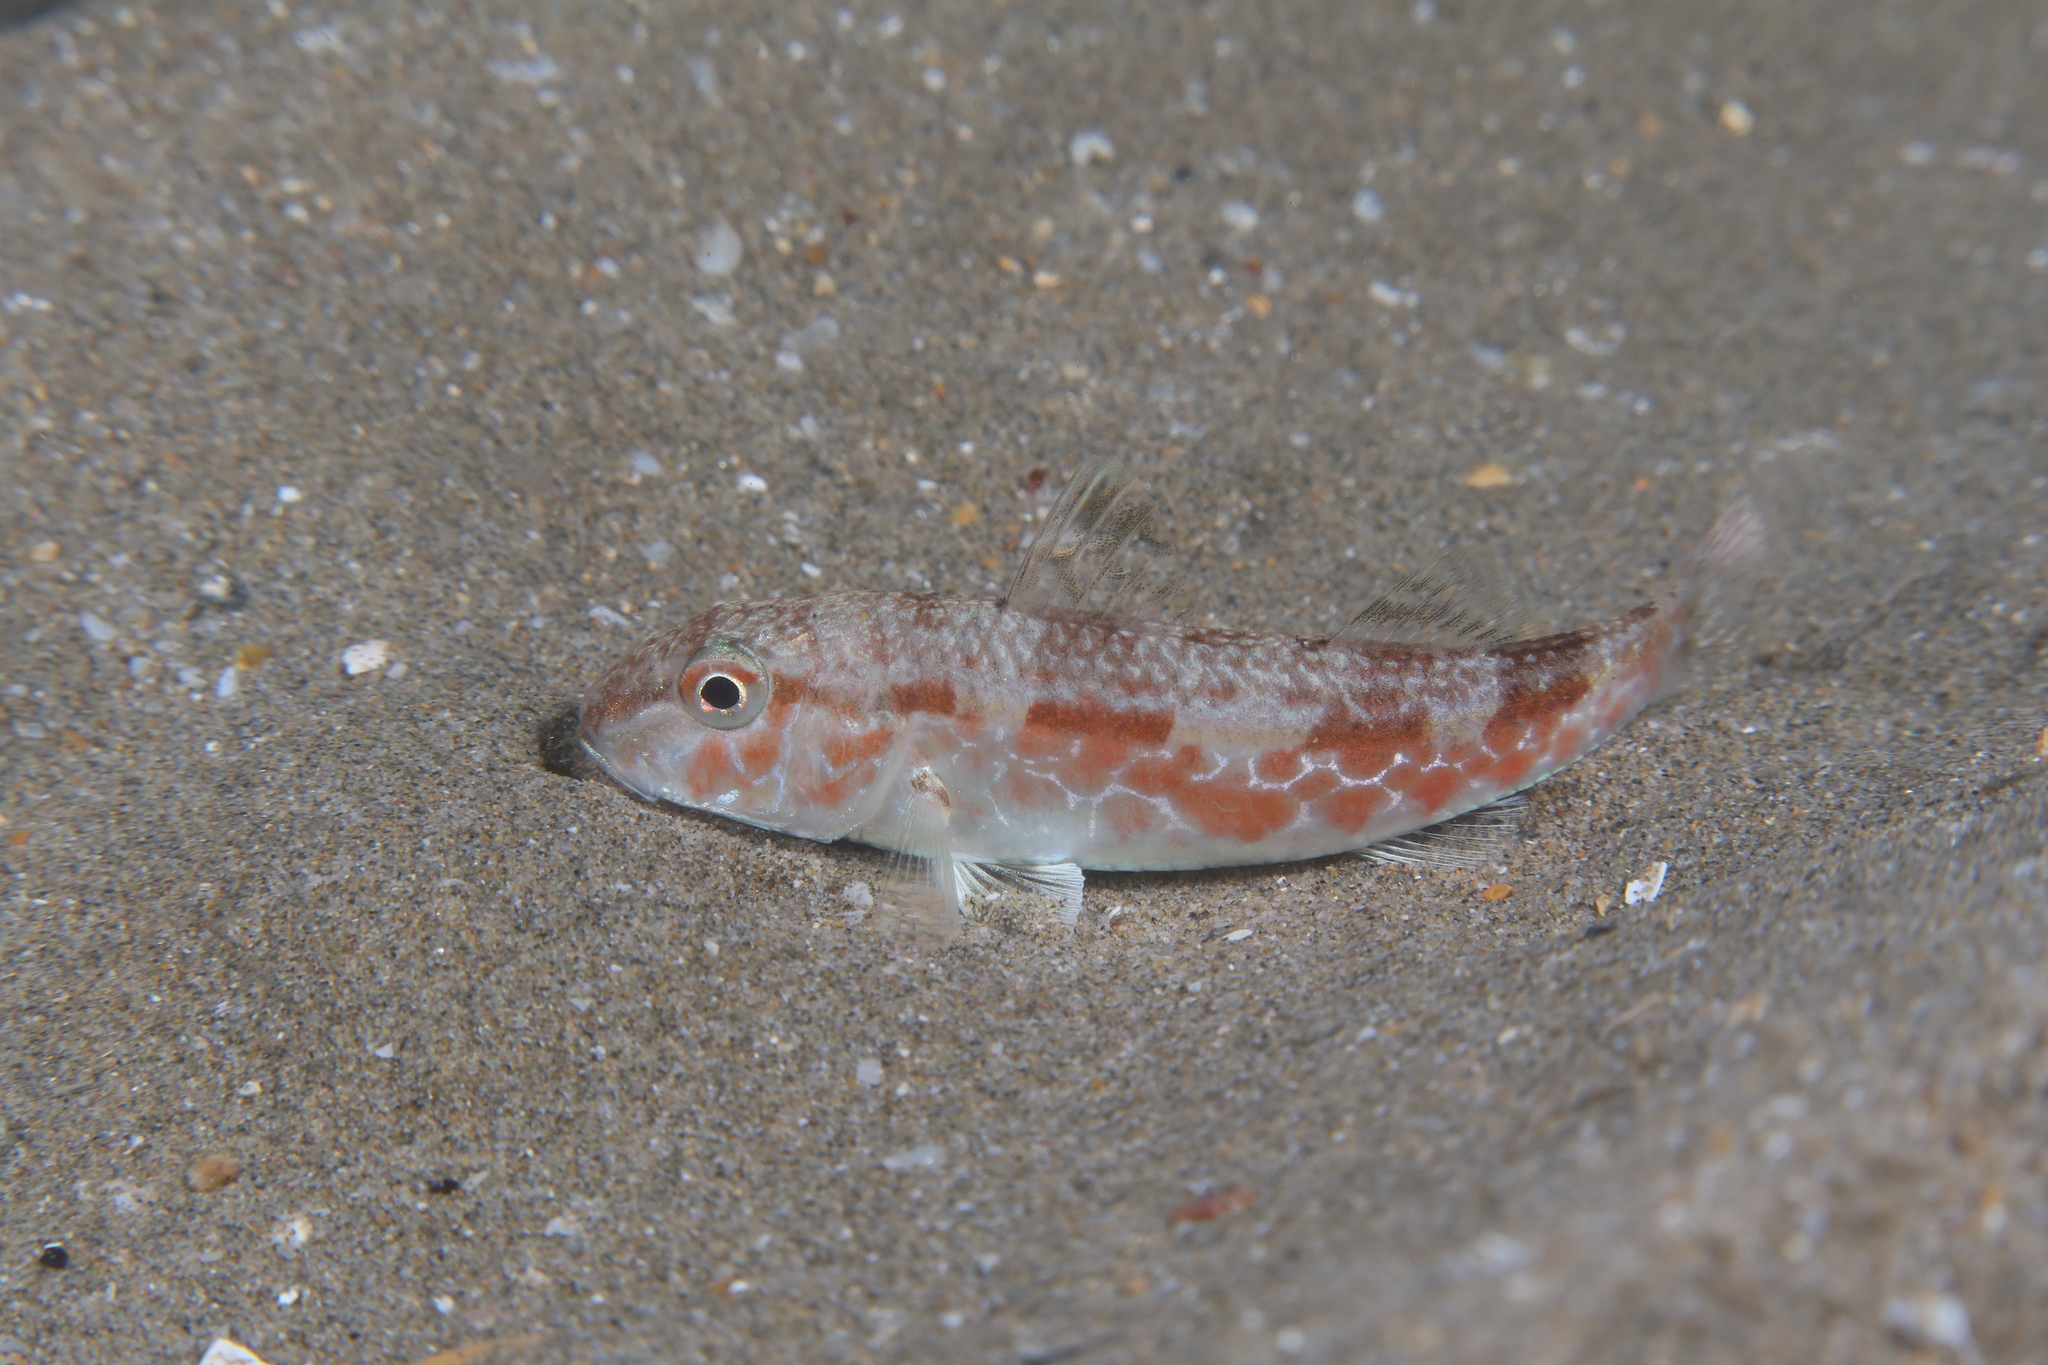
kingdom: Animalia
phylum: Chordata
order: Perciformes
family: Mullidae
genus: Mullus
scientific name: Mullus barbatus
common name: Blunt-snouted mullet
